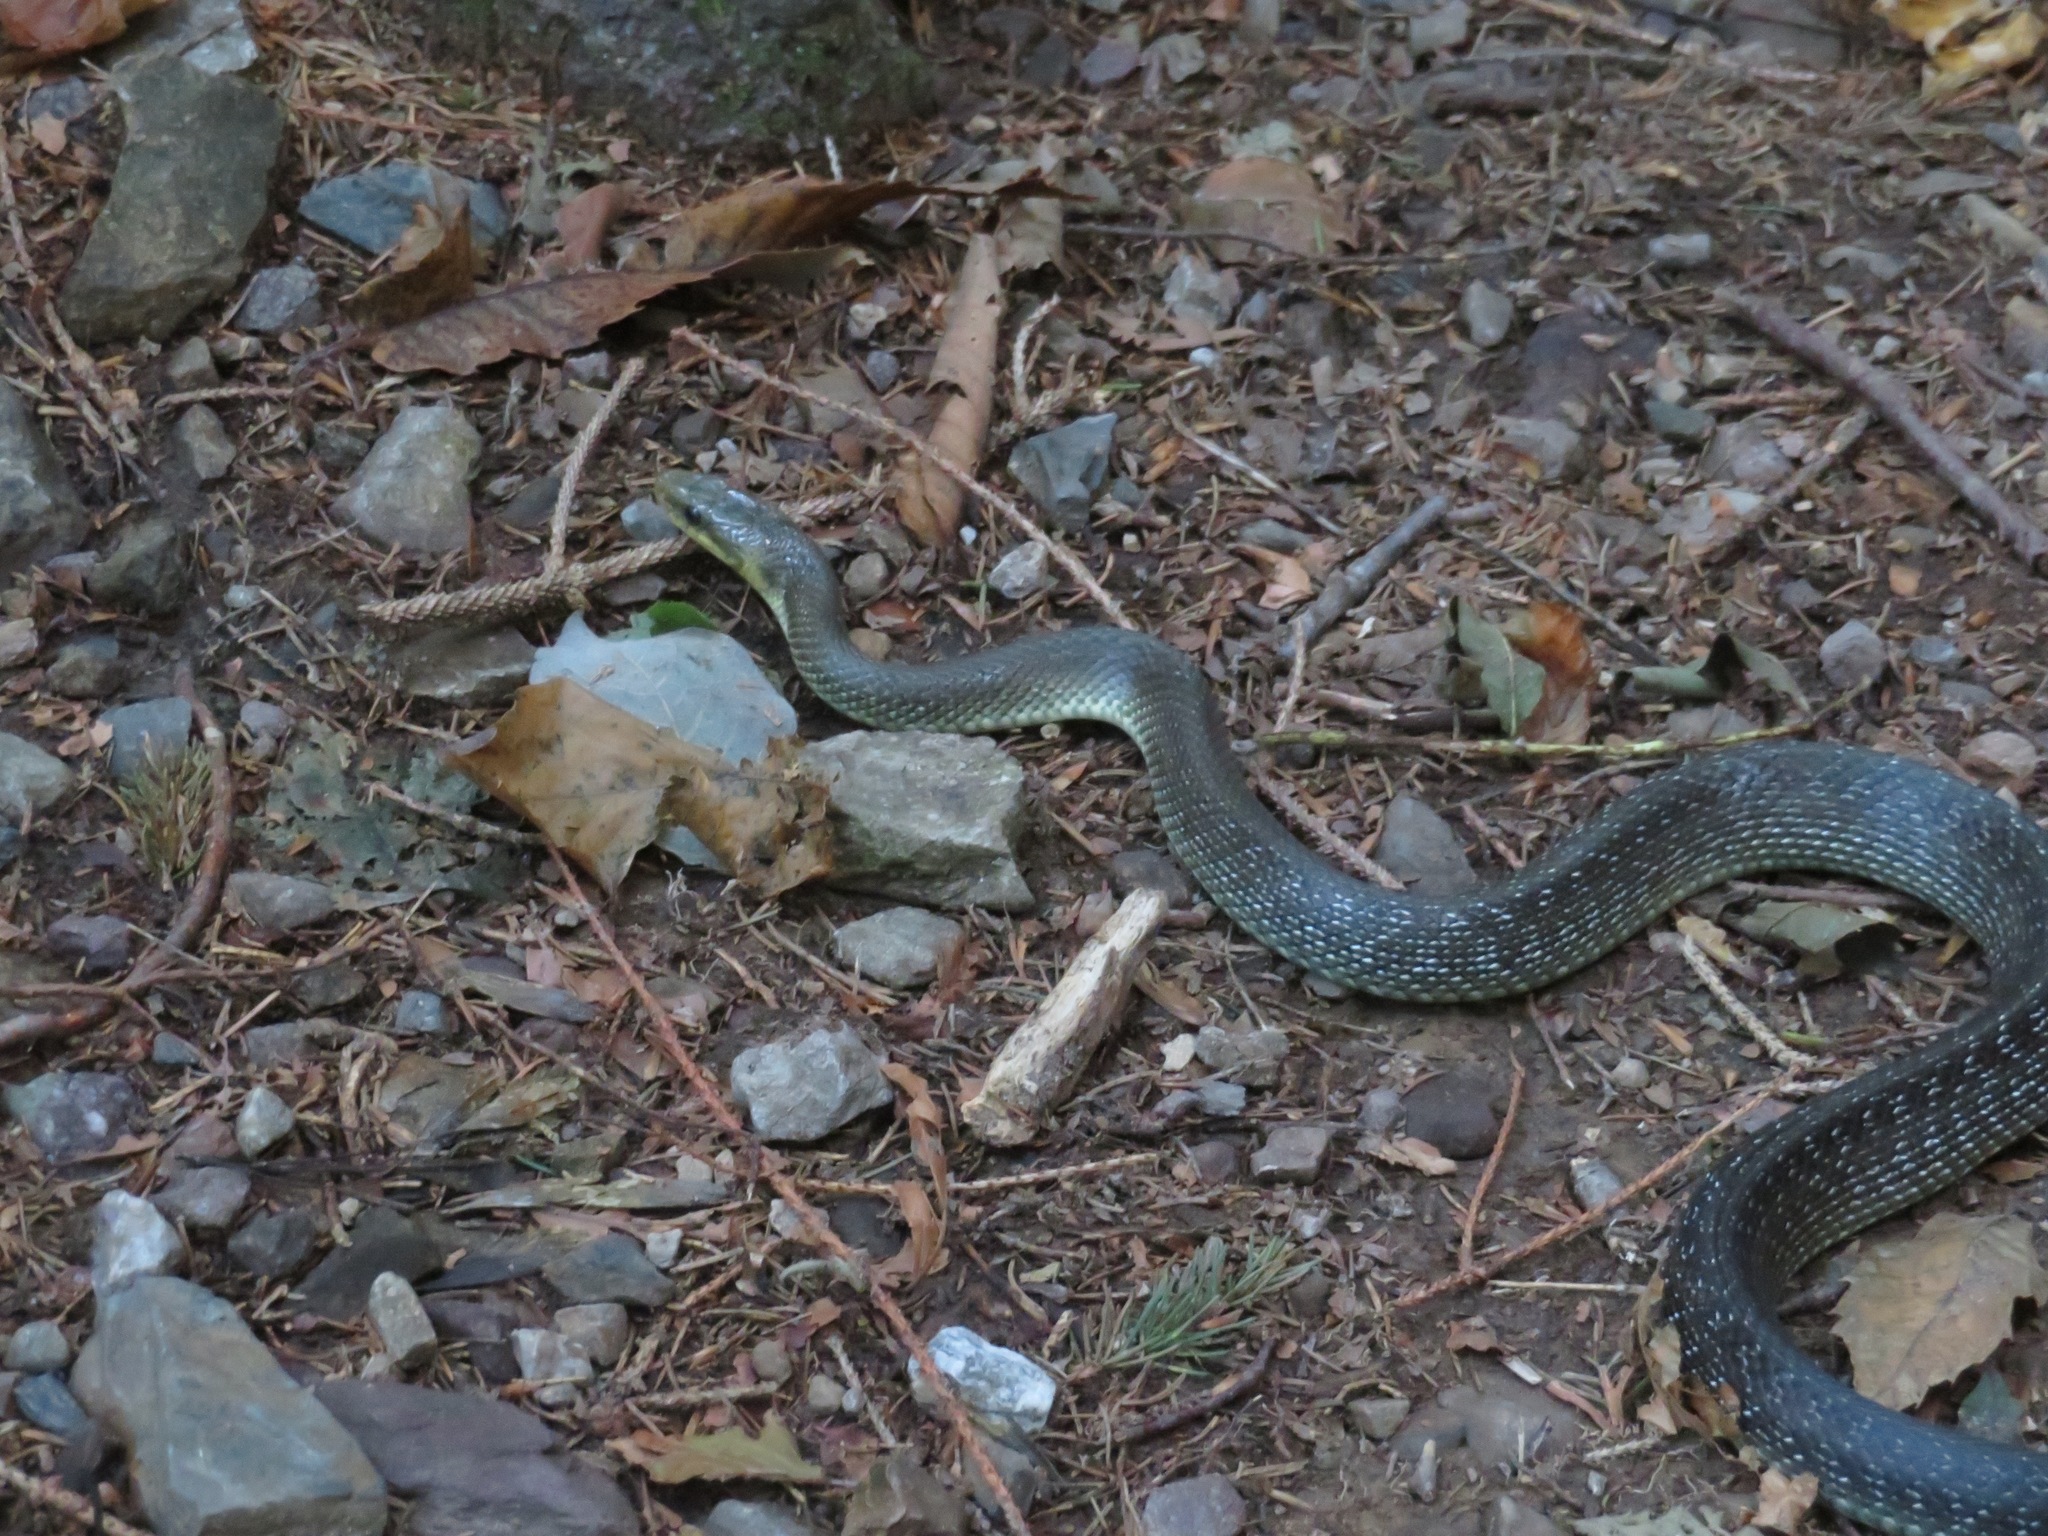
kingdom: Animalia
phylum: Chordata
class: Squamata
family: Colubridae
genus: Zamenis
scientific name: Zamenis longissimus
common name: Aesculapean snake
